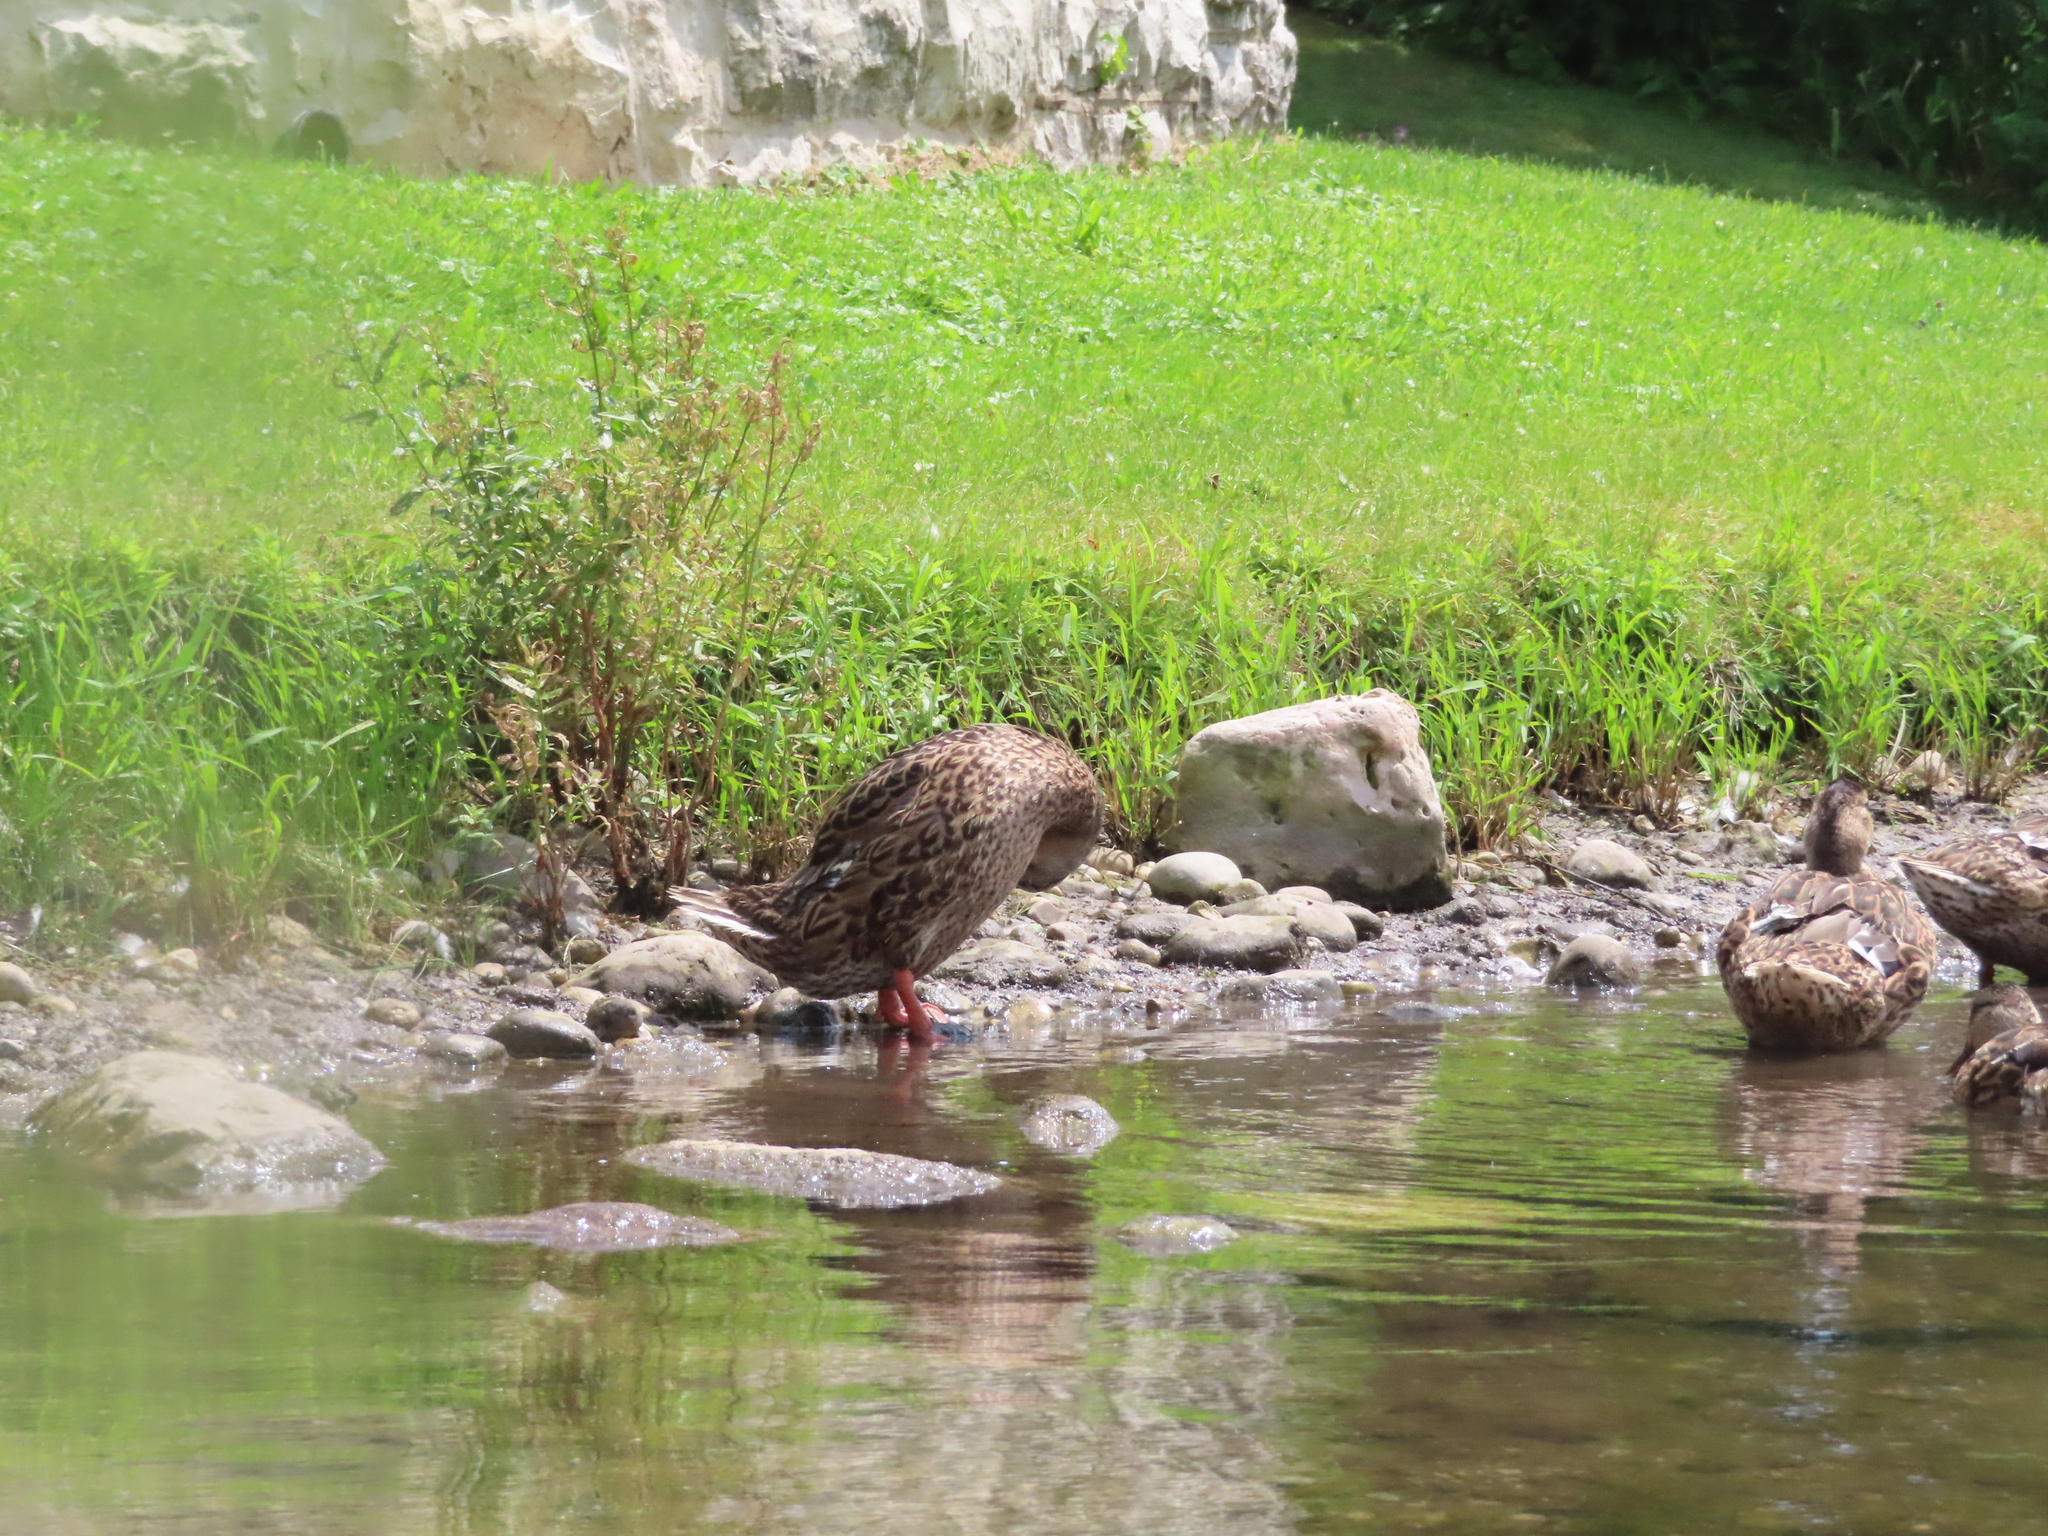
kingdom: Animalia
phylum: Chordata
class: Aves
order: Anseriformes
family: Anatidae
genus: Anas
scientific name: Anas platyrhynchos
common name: Mallard
